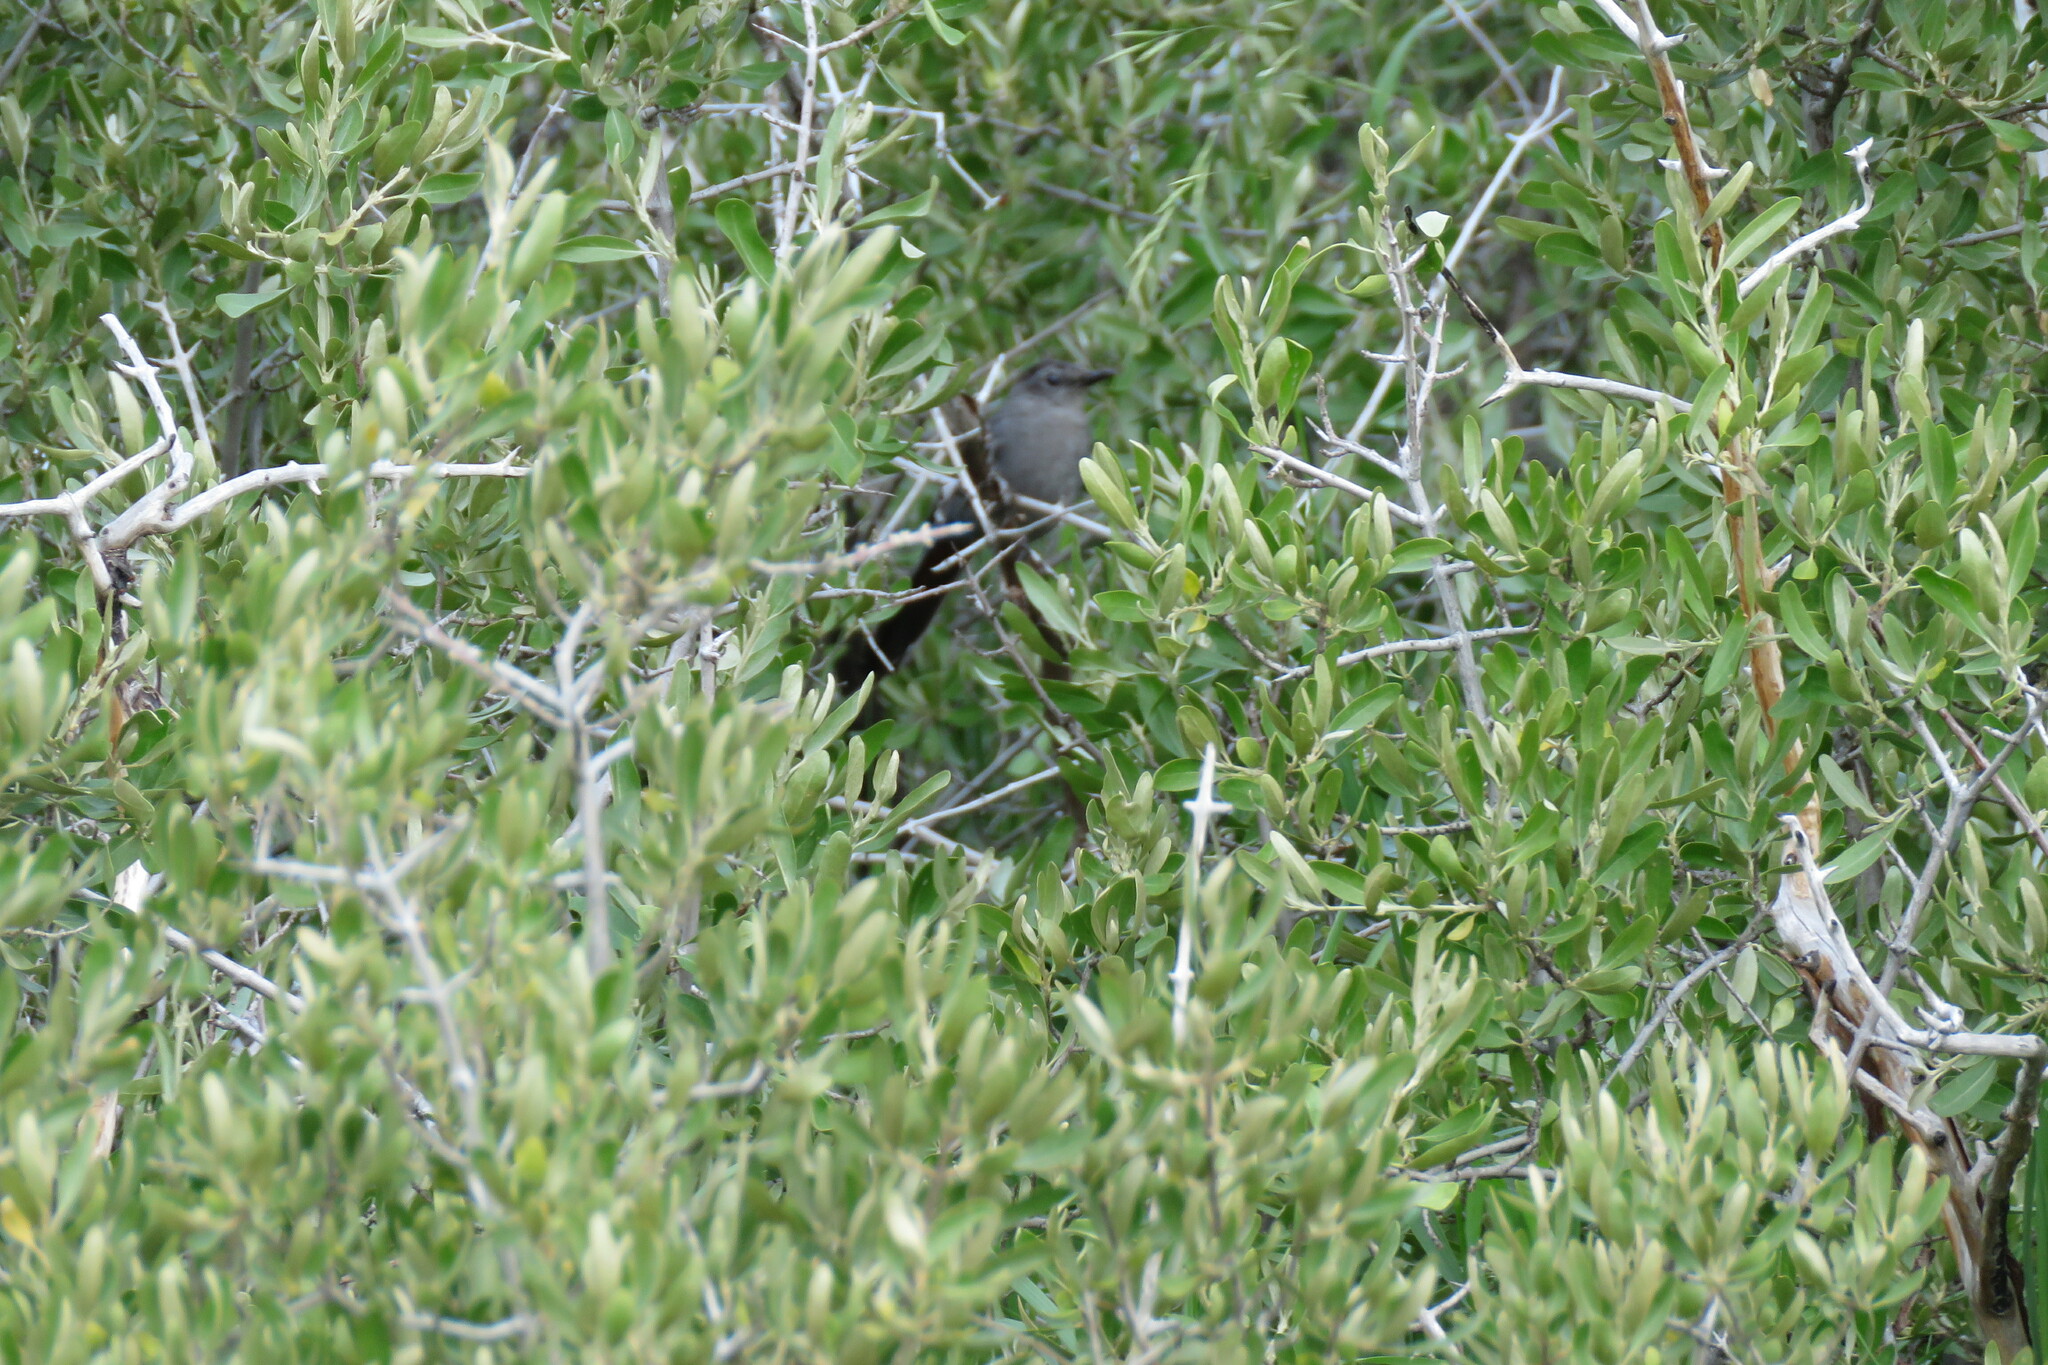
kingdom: Animalia
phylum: Chordata
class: Aves
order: Passeriformes
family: Mimidae
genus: Dumetella
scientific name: Dumetella carolinensis
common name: Gray catbird
